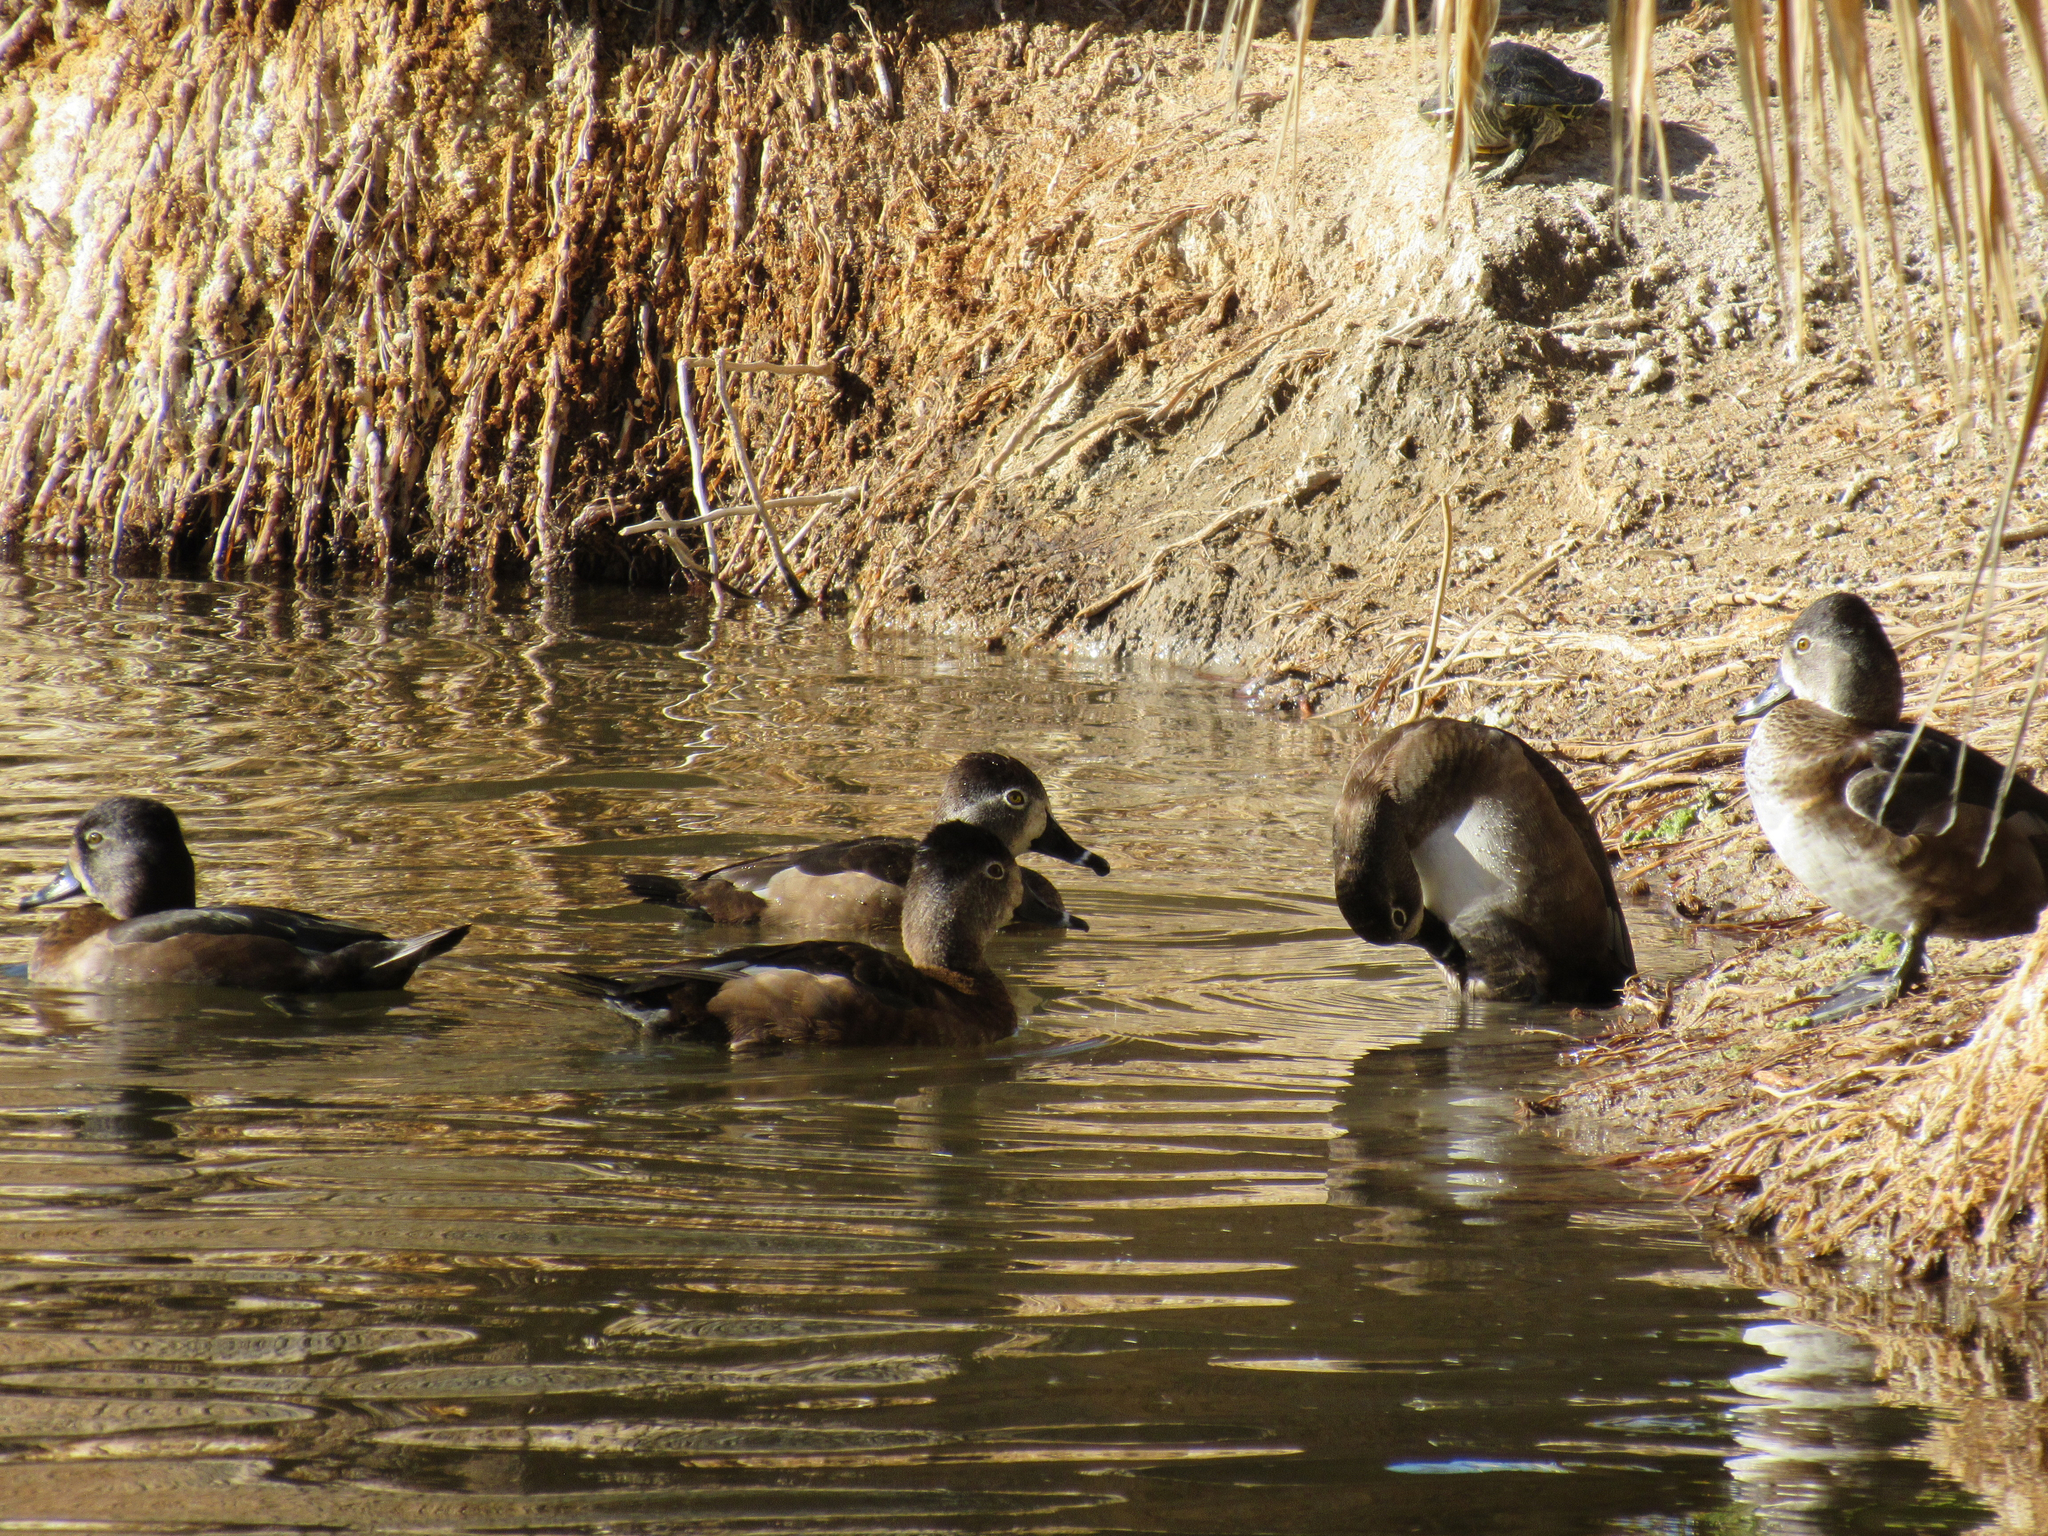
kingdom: Animalia
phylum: Chordata
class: Aves
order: Anseriformes
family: Anatidae
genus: Aythya
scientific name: Aythya collaris
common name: Ring-necked duck
